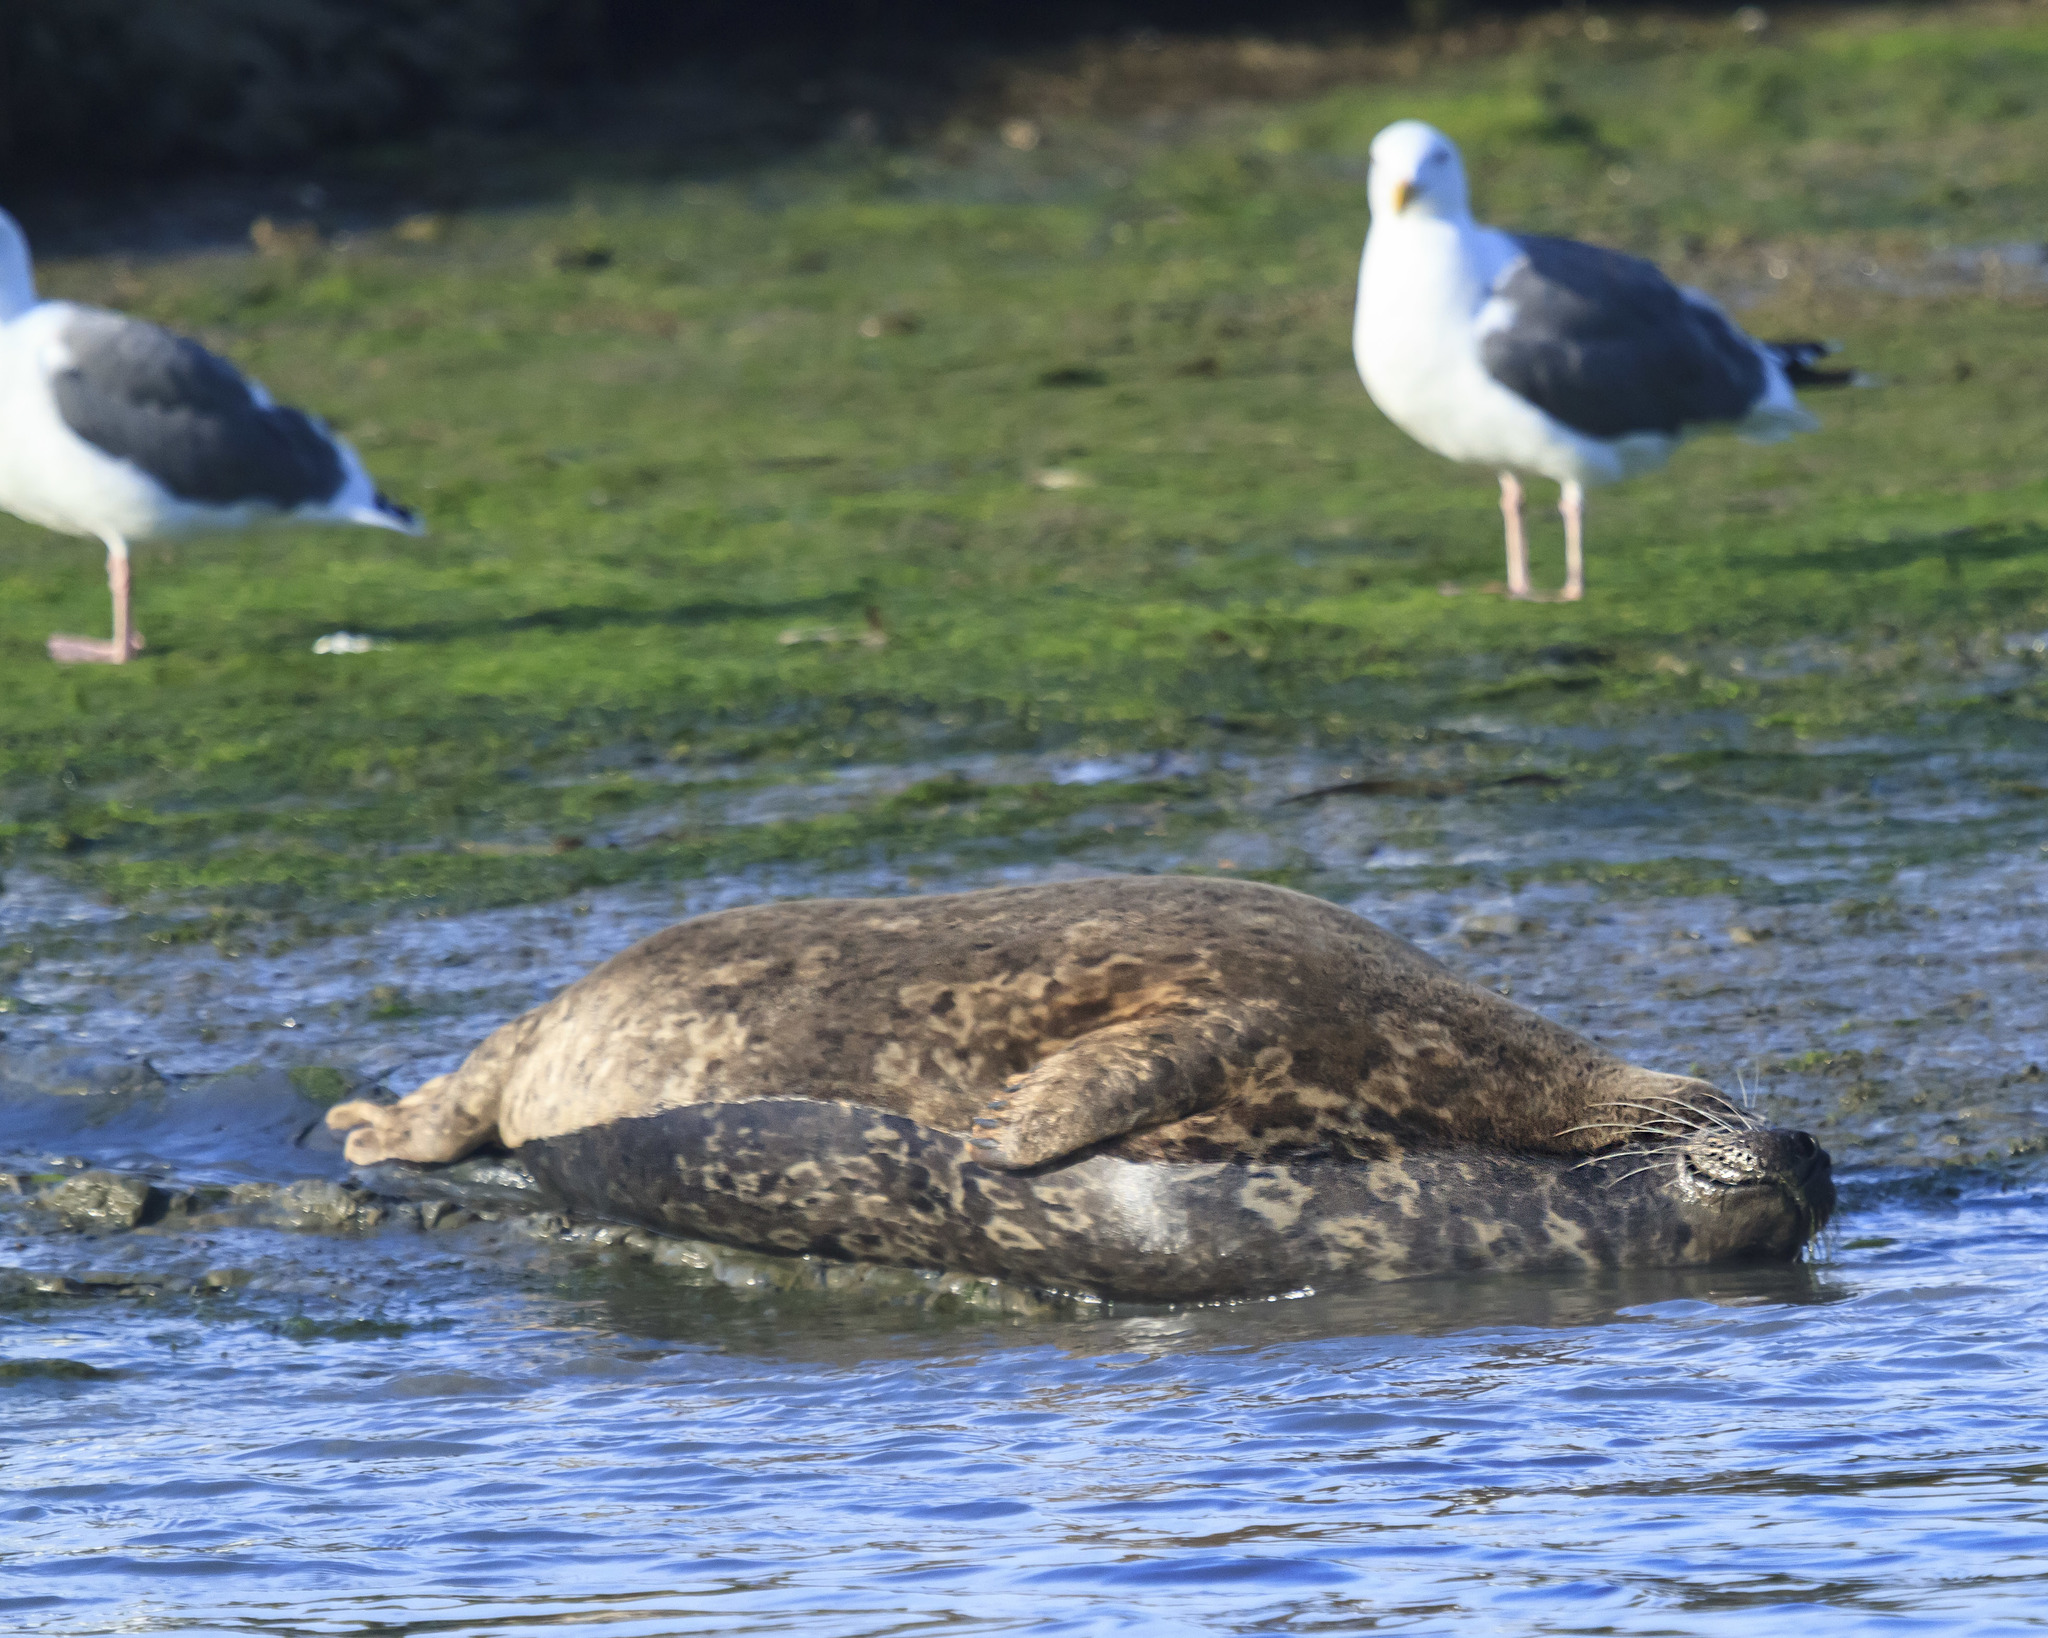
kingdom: Animalia
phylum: Chordata
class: Mammalia
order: Carnivora
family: Phocidae
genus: Phoca
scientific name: Phoca vitulina
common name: Harbor seal
